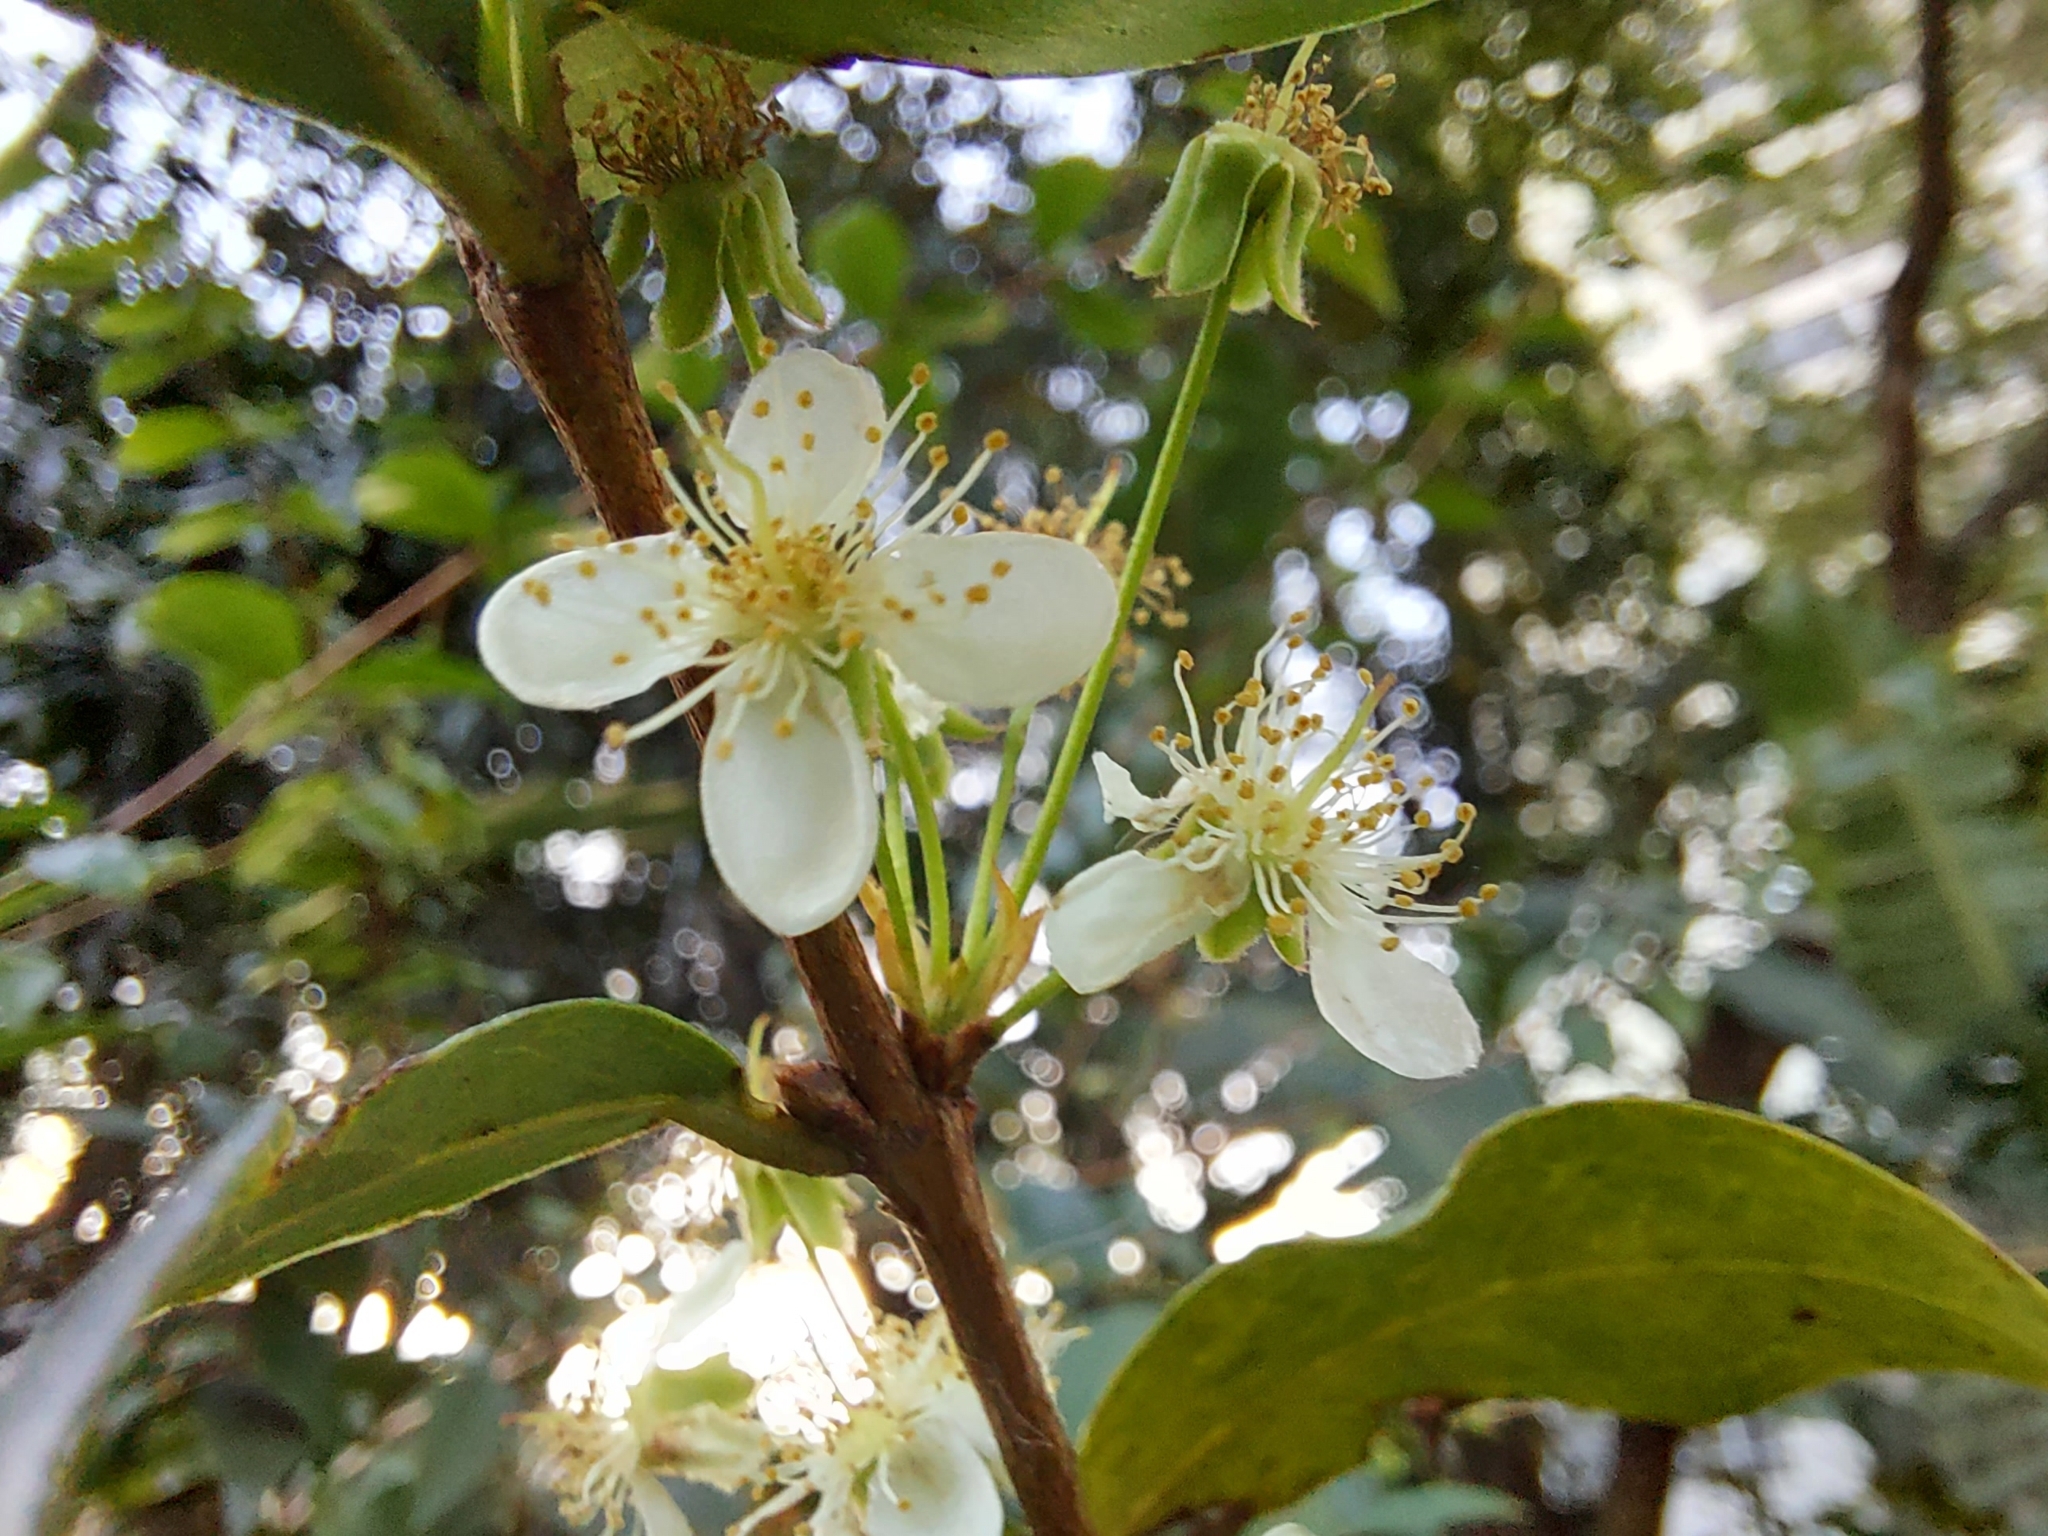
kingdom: Plantae
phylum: Tracheophyta
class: Magnoliopsida
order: Myrtales
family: Myrtaceae
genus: Eugenia
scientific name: Eugenia uniflora
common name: Surinam cherry
